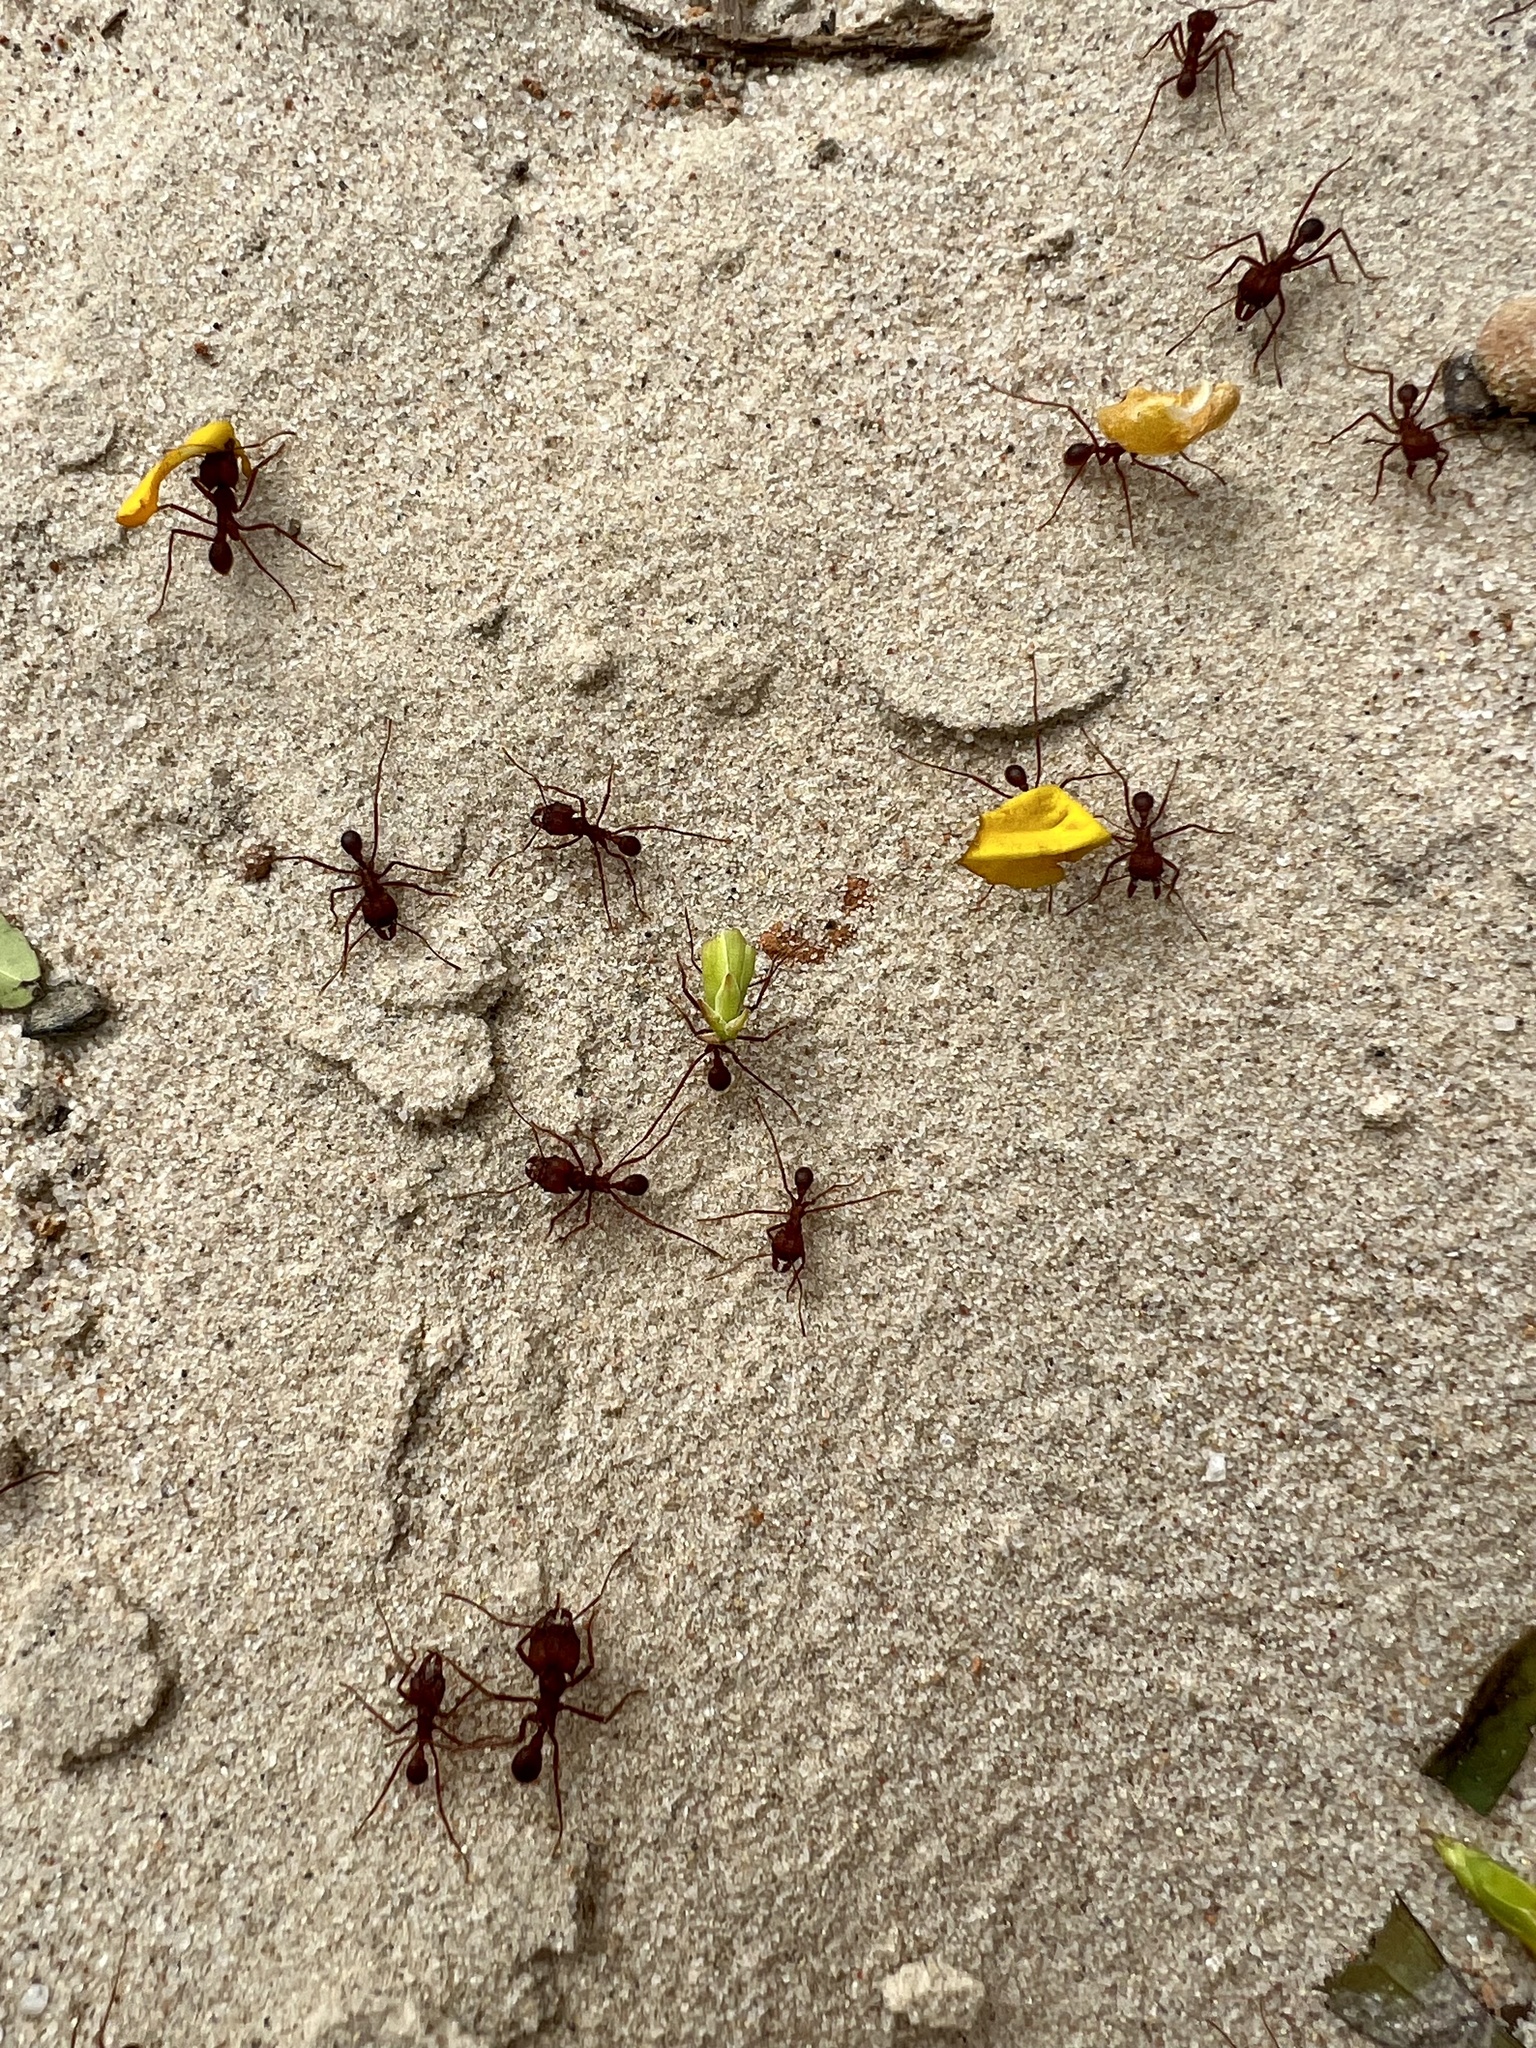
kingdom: Animalia
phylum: Arthropoda
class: Insecta
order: Hymenoptera
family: Formicidae
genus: Atta
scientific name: Atta texana
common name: Texas leafcutting ant
